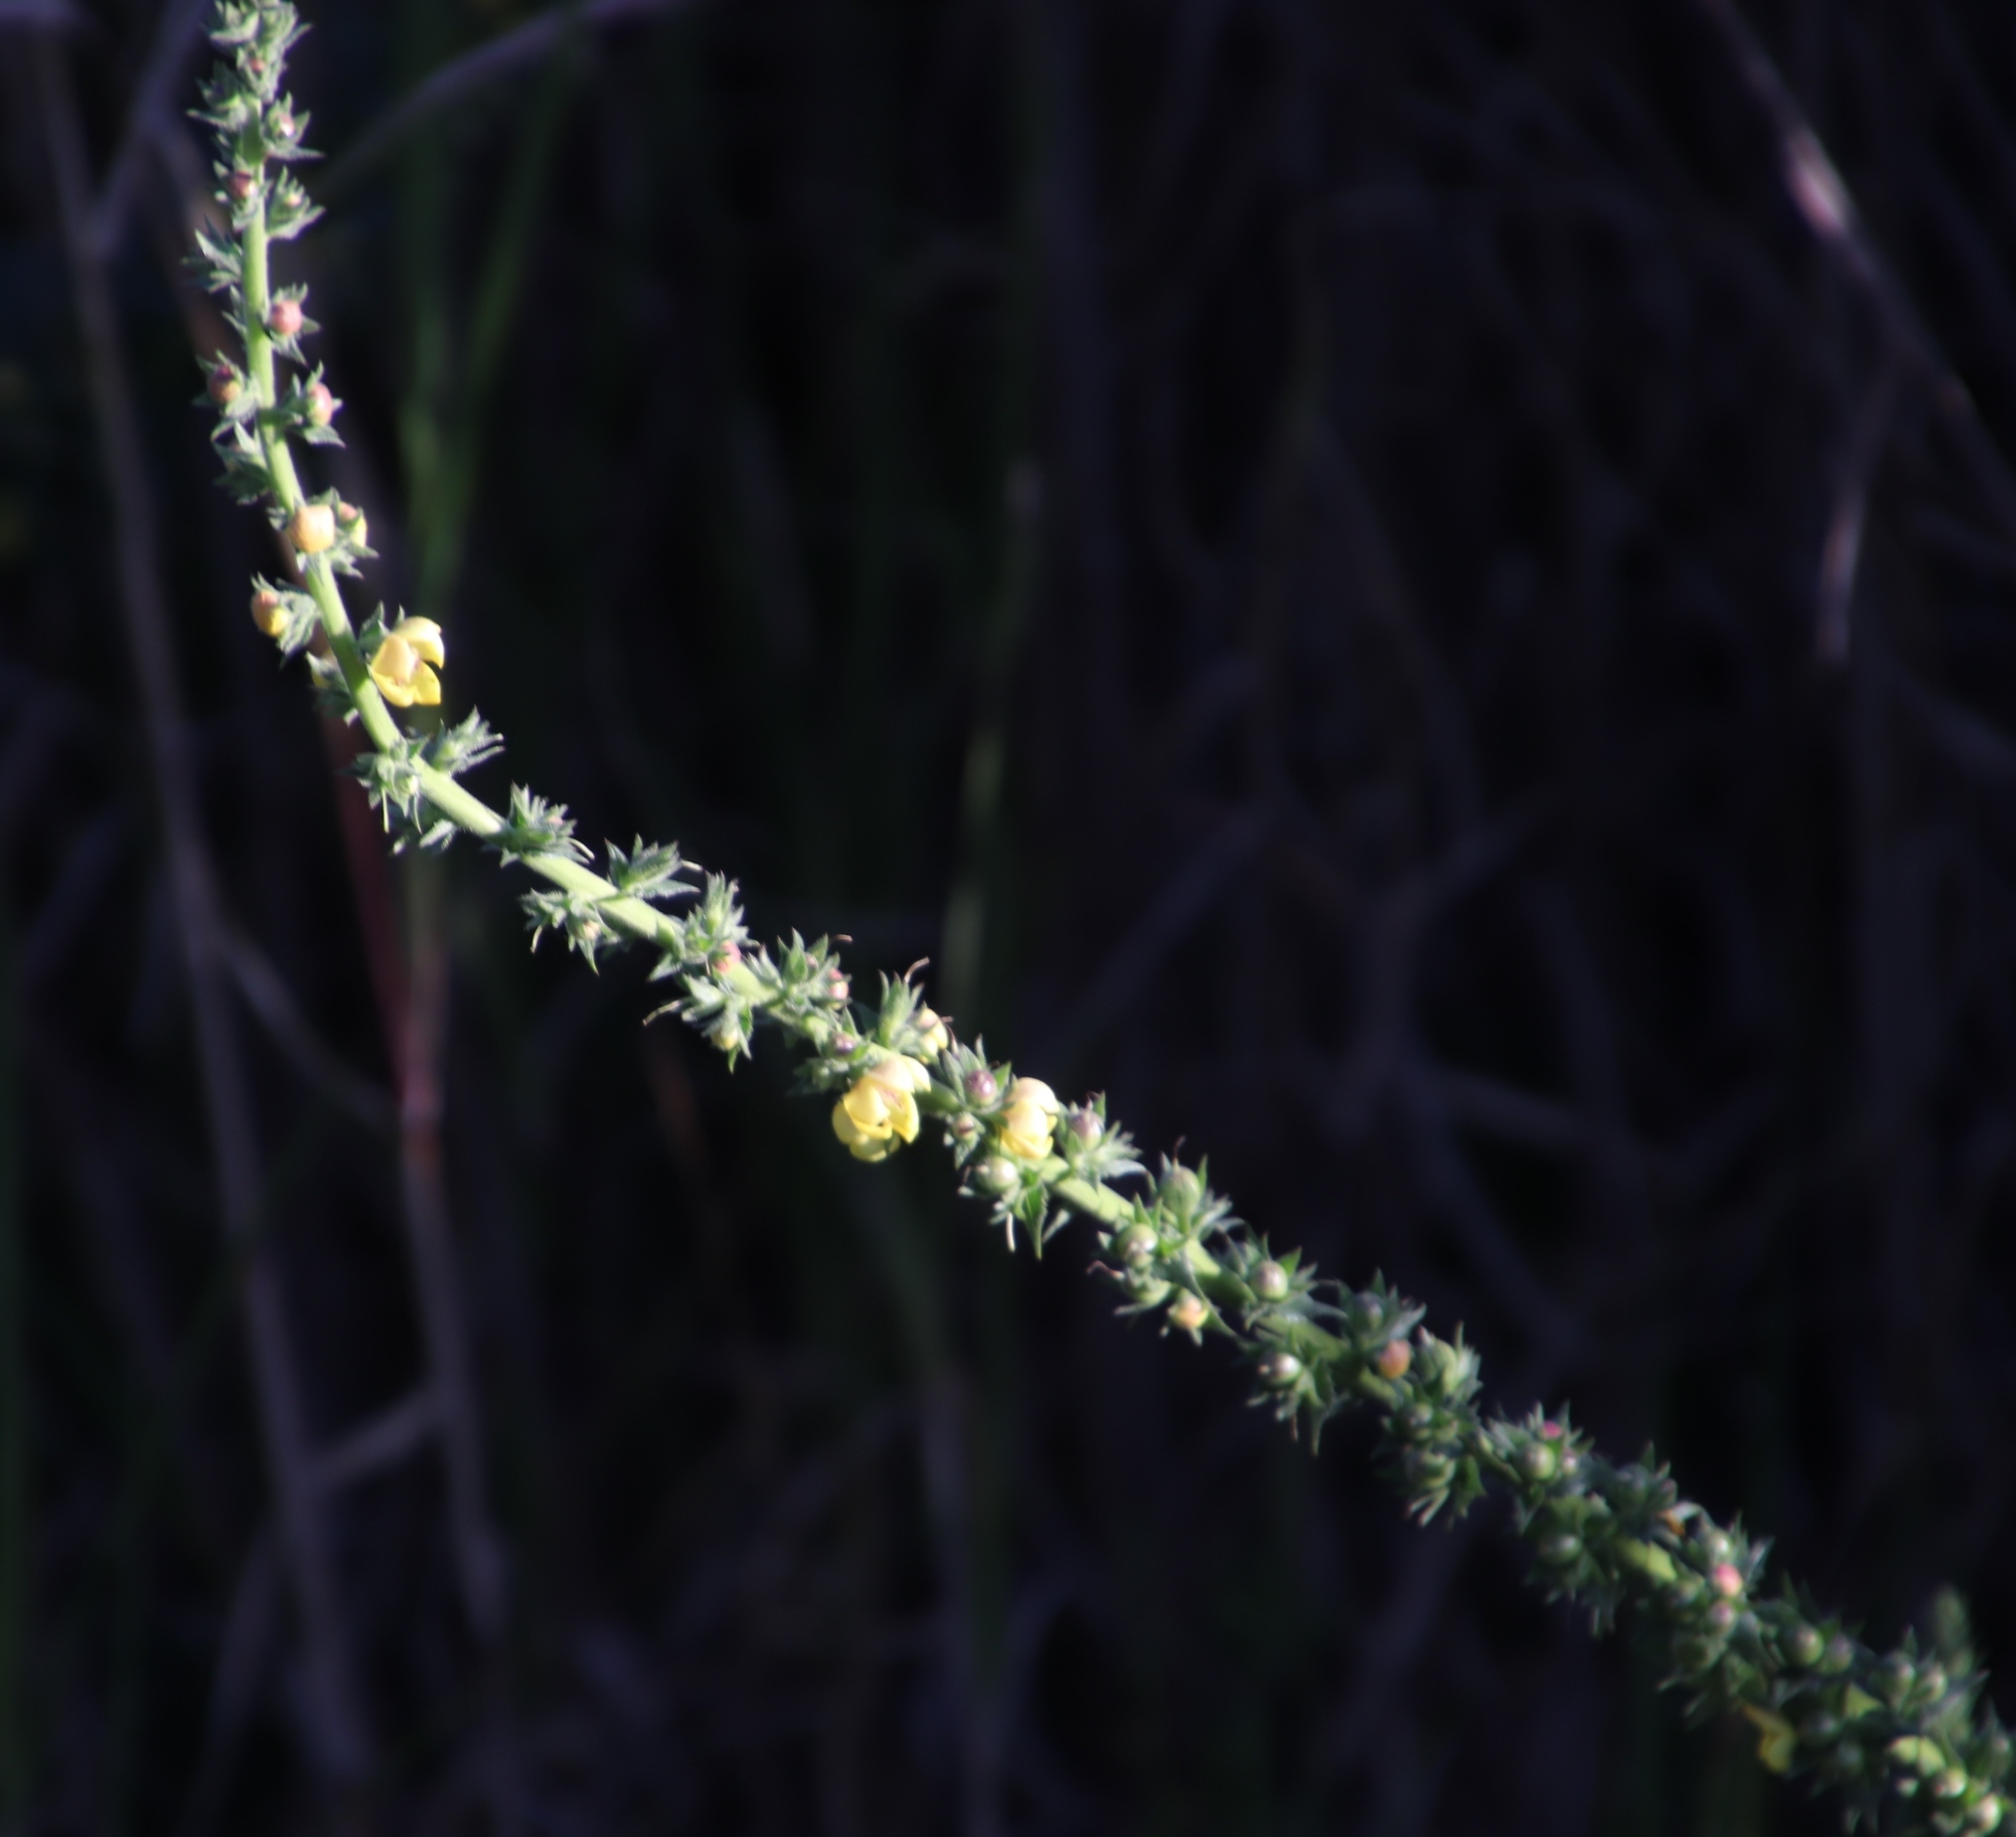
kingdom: Plantae
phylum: Tracheophyta
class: Magnoliopsida
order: Lamiales
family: Scrophulariaceae
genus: Verbascum
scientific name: Verbascum virgatum
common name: Twiggy mullein
